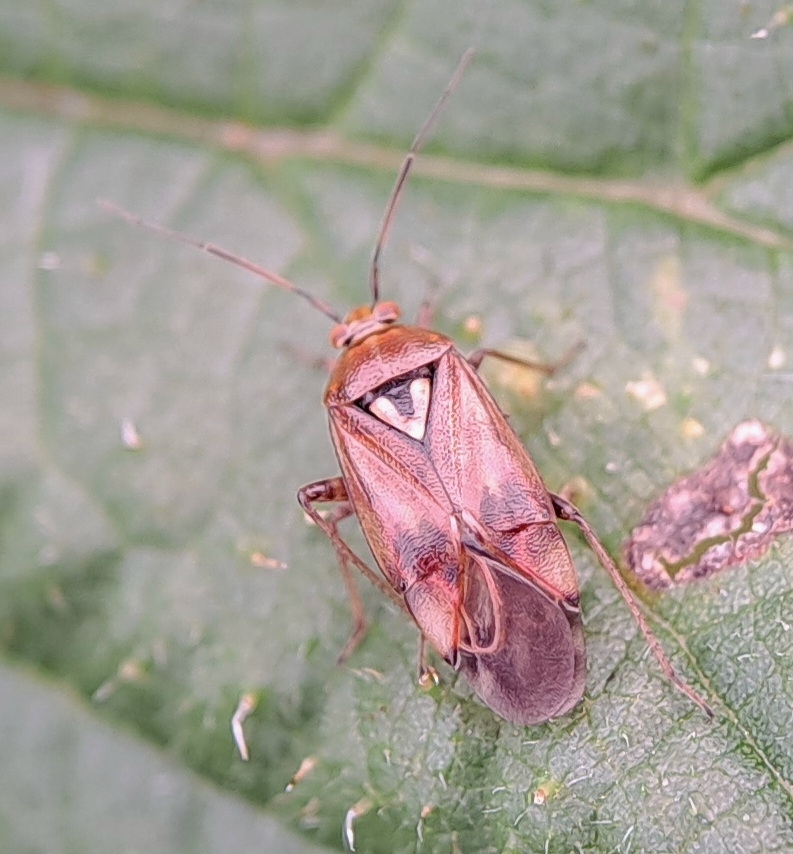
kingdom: Animalia
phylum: Arthropoda
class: Insecta
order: Hemiptera
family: Miridae
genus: Lygus
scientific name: Lygus pratensis
